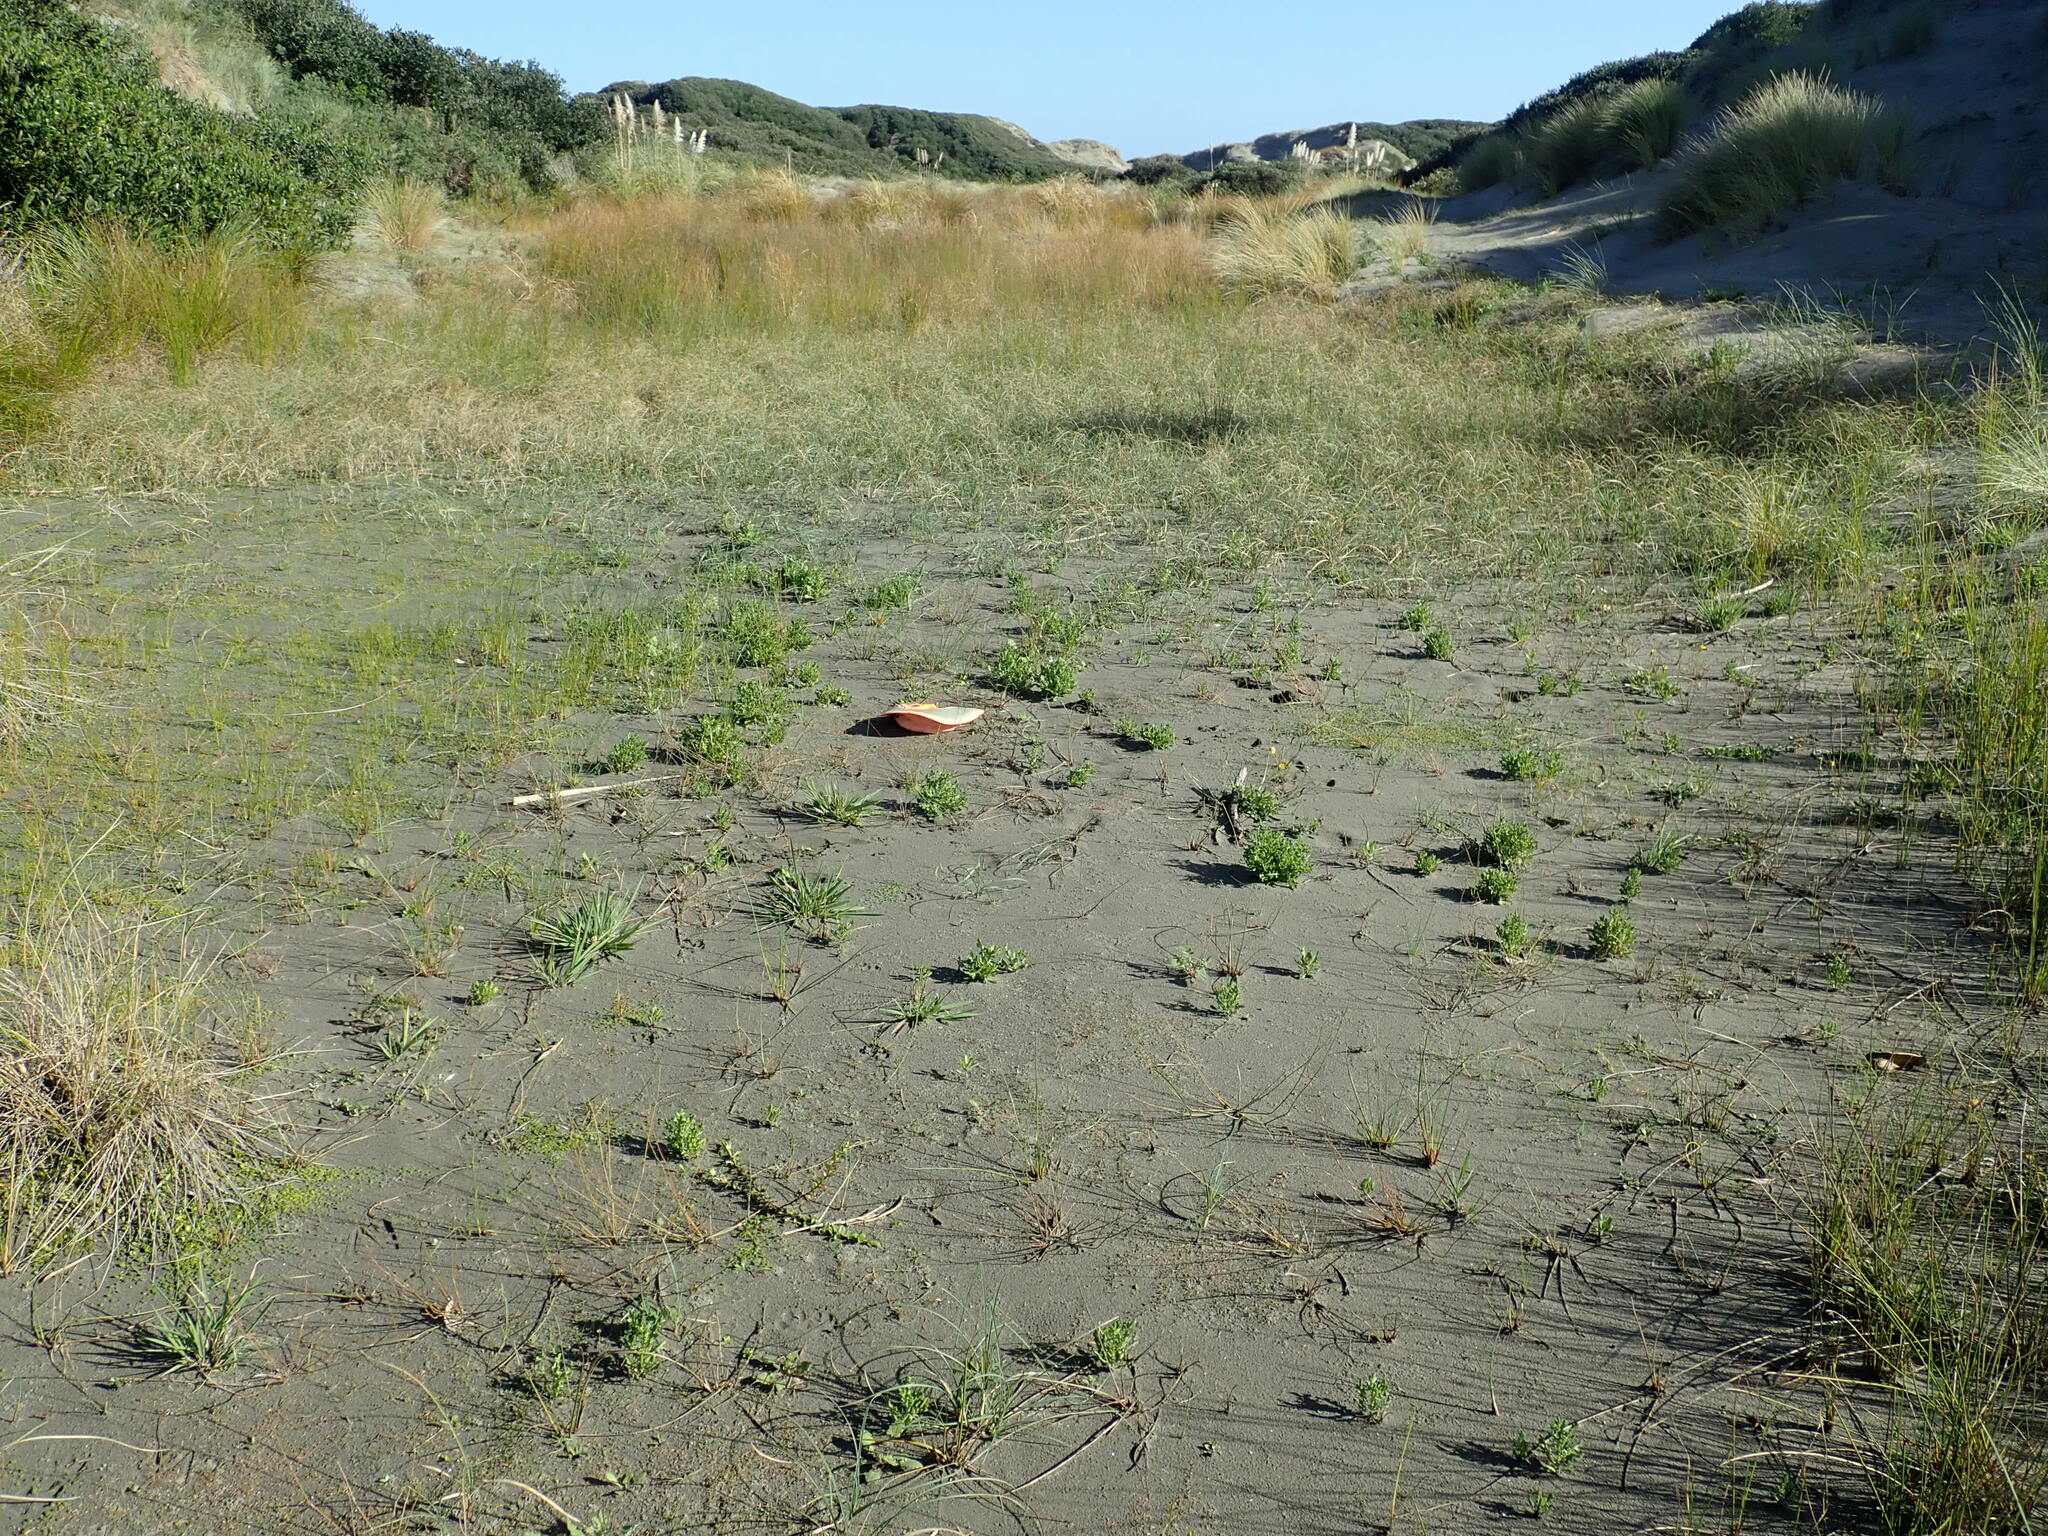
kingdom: Plantae
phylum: Tracheophyta
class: Magnoliopsida
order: Lamiales
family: Scrophulariaceae
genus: Limosella
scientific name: Limosella australis
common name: Welsh mudwort
